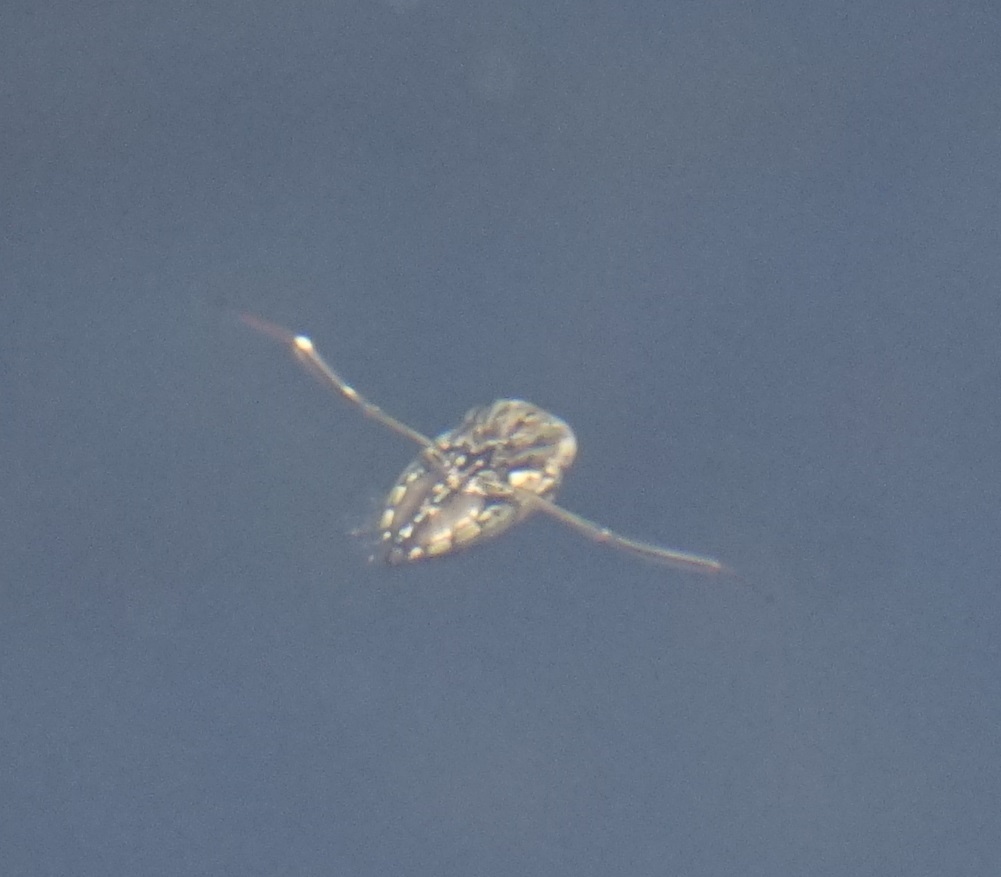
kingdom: Animalia
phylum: Arthropoda
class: Insecta
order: Hemiptera
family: Notonectidae
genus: Enithares
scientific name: Enithares
